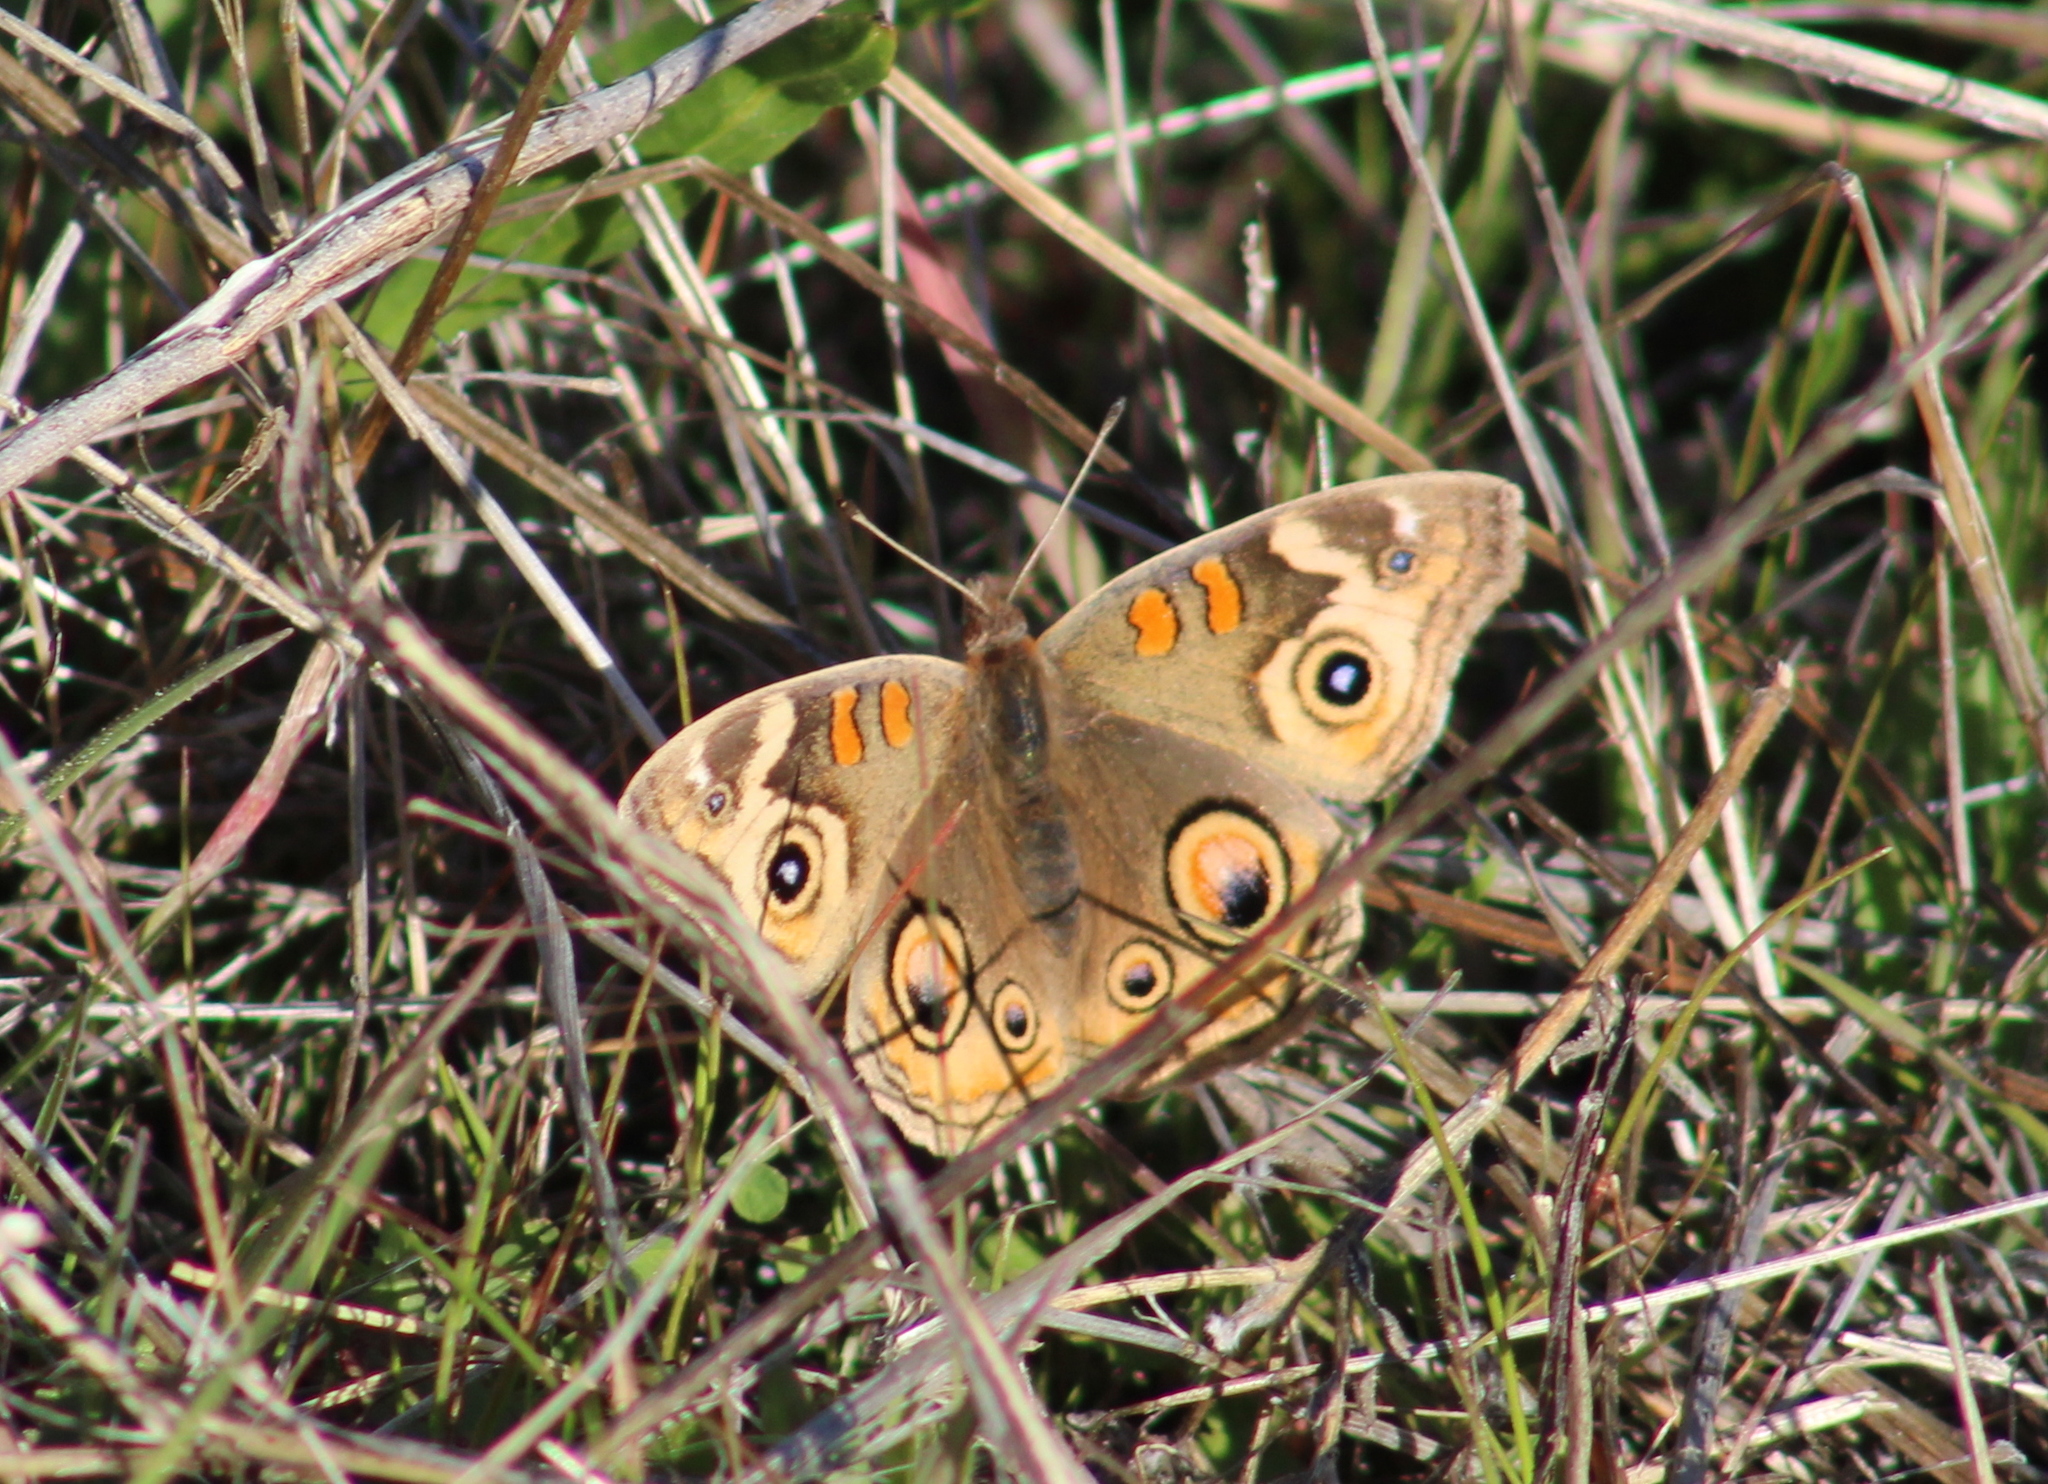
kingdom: Animalia
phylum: Arthropoda
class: Insecta
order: Lepidoptera
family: Nymphalidae
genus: Junonia
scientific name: Junonia grisea
